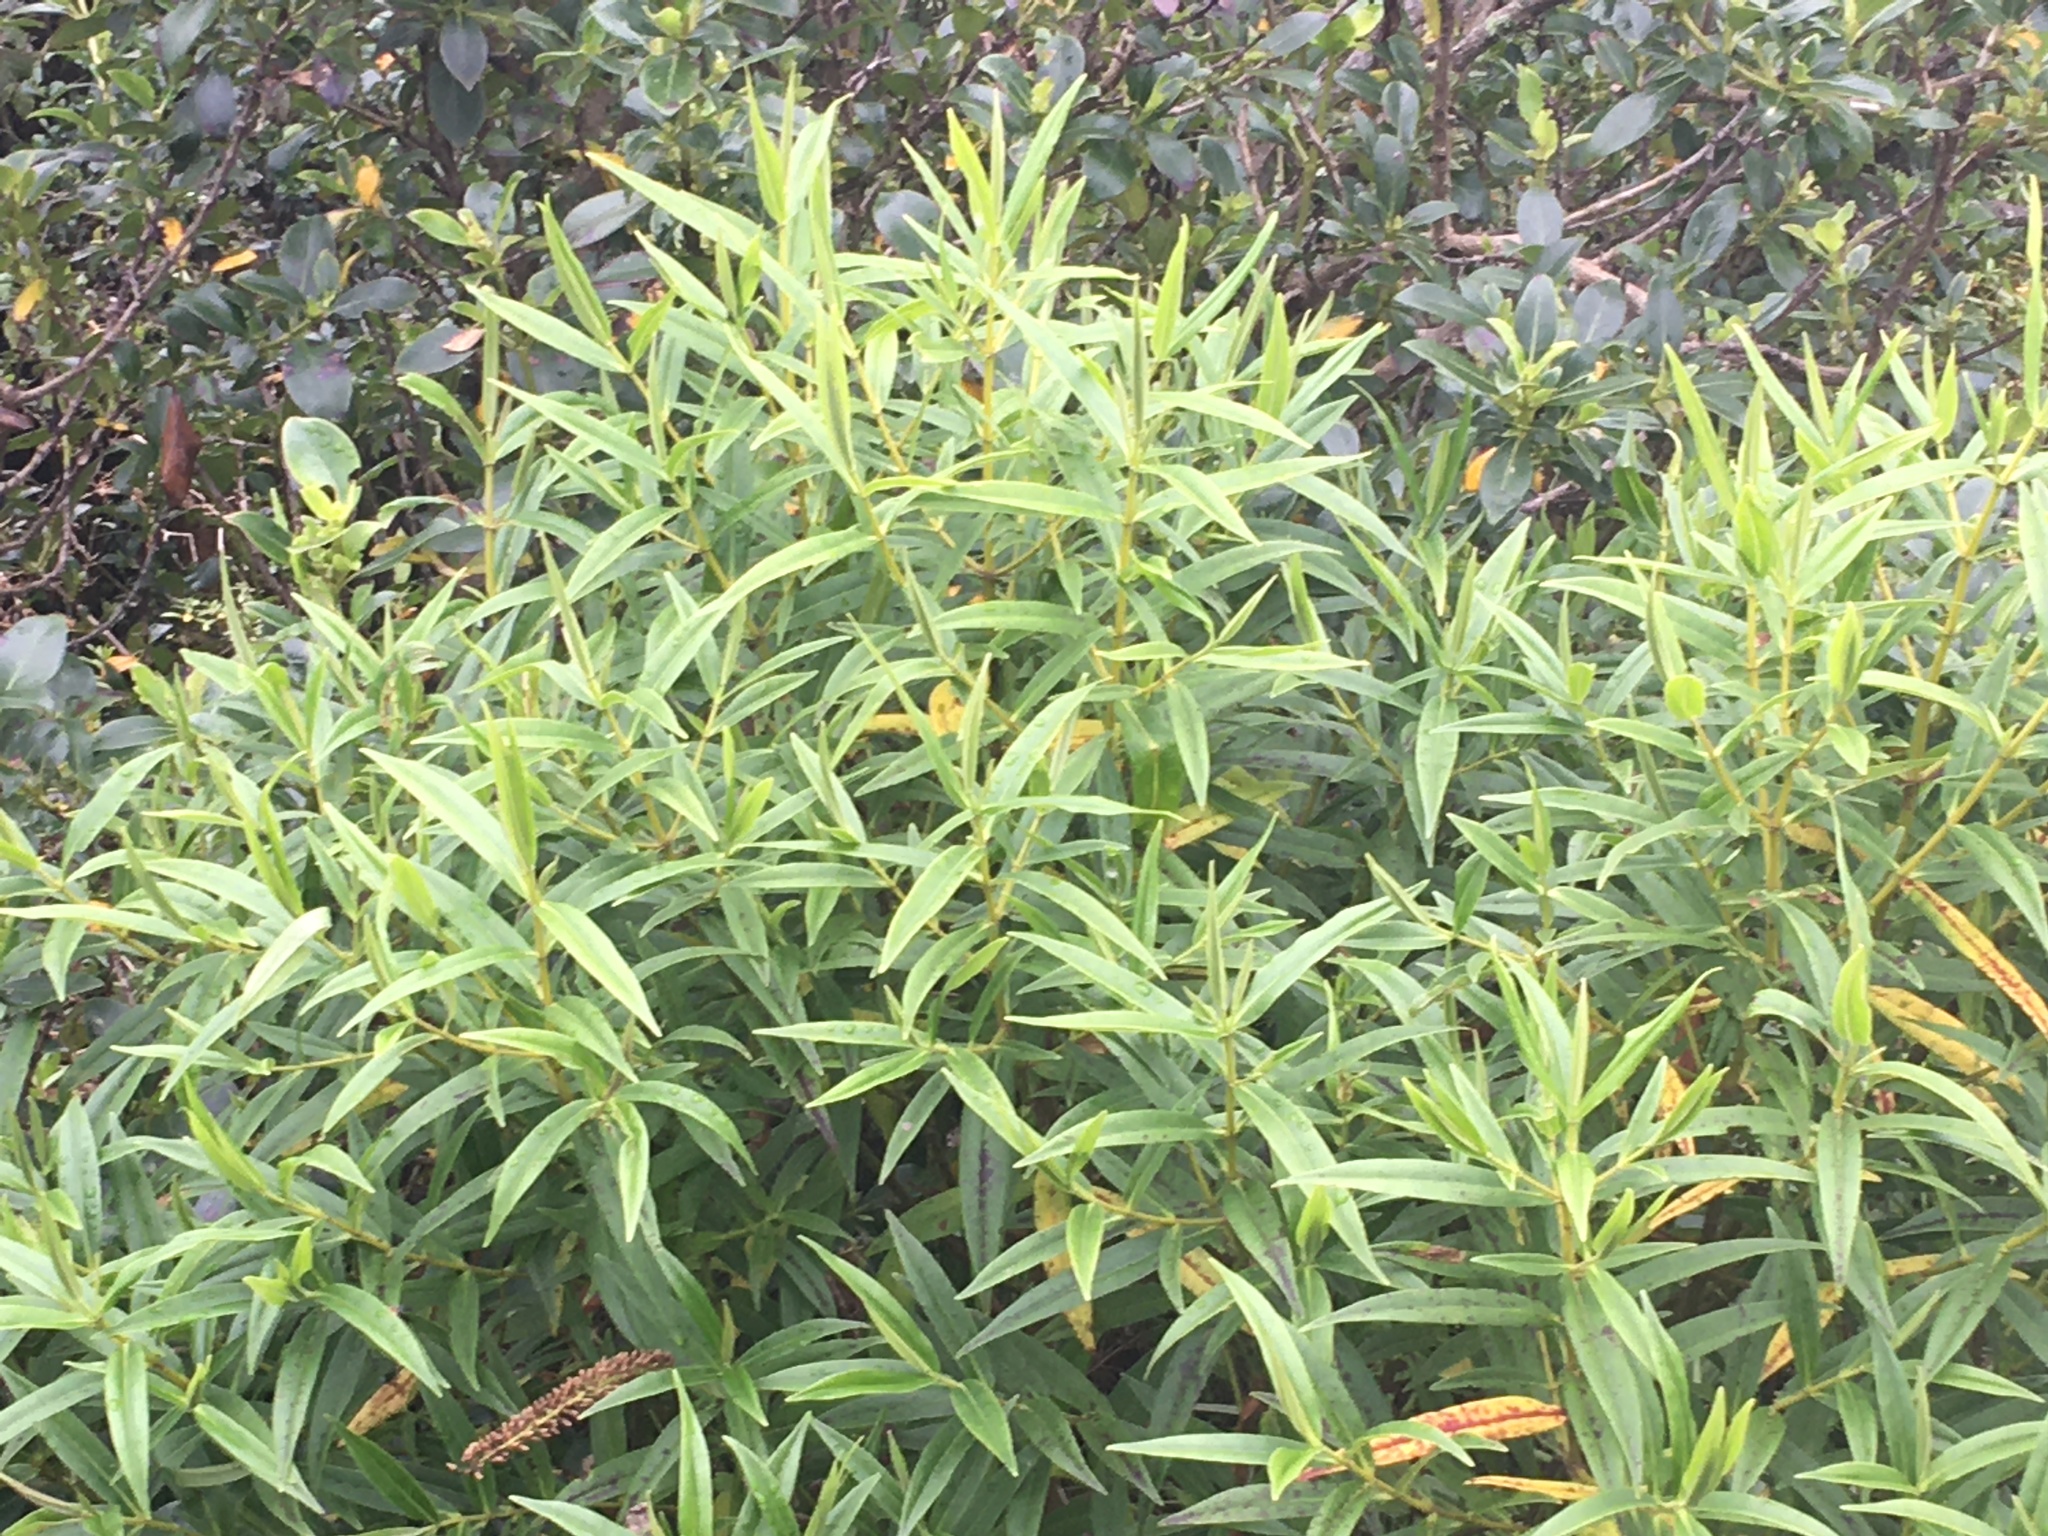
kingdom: Plantae
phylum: Tracheophyta
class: Magnoliopsida
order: Lamiales
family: Plantaginaceae
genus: Veronica
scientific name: Veronica stricta
